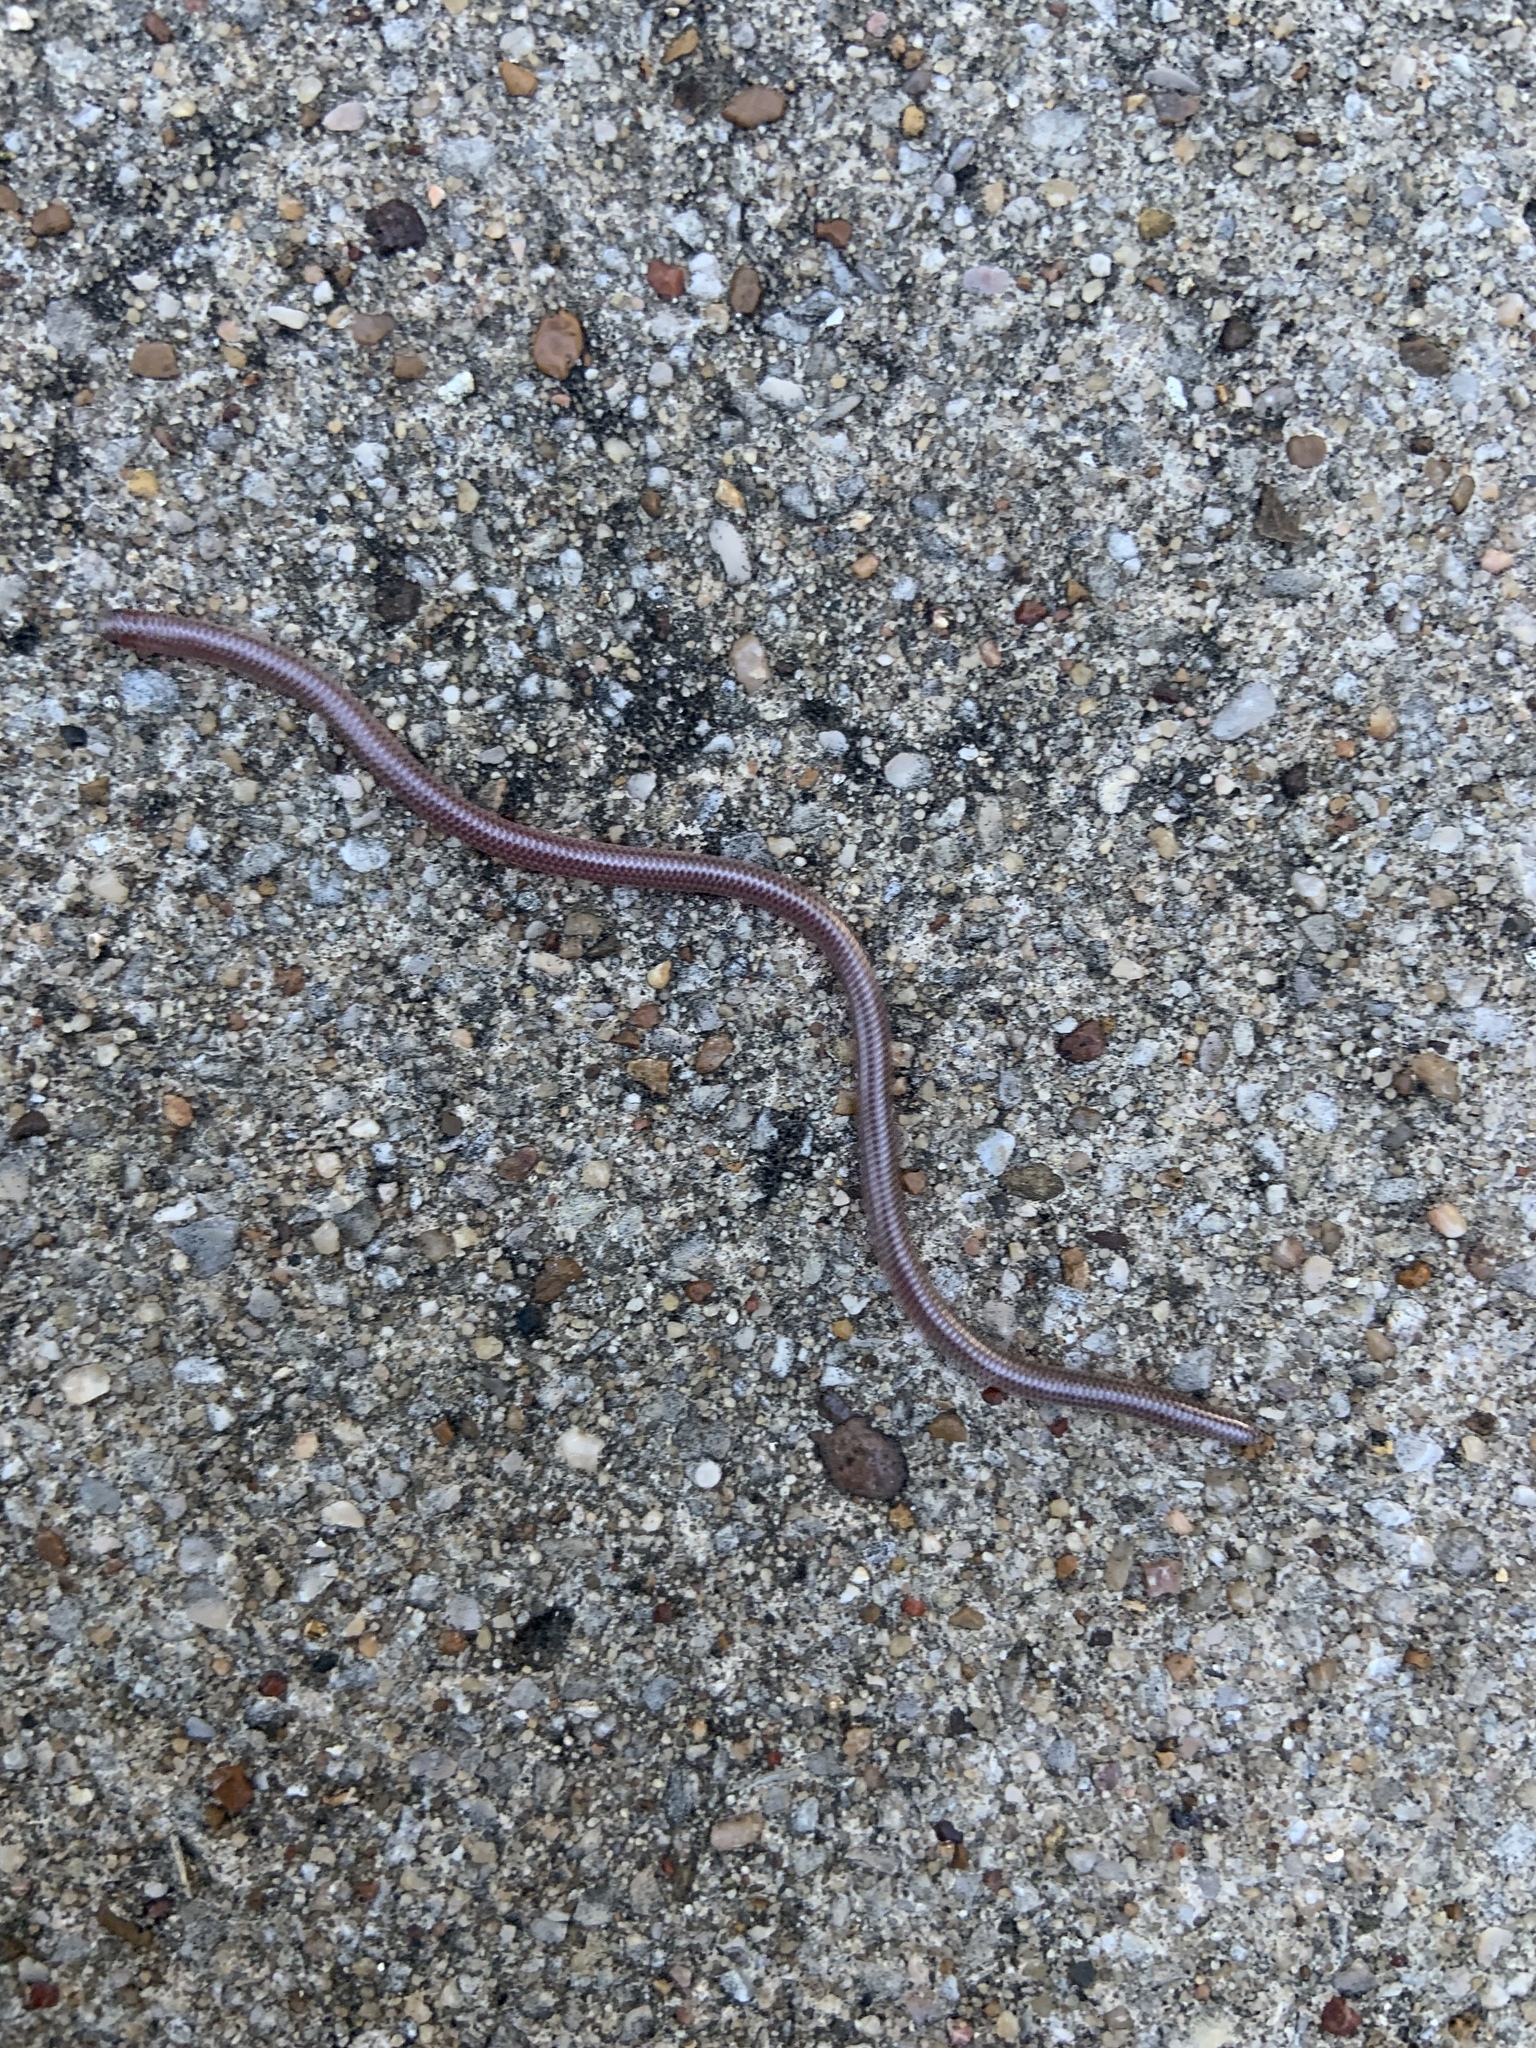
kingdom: Animalia
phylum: Chordata
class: Squamata
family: Leptotyphlopidae
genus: Rena
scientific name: Rena dulcis
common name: Texas blind snake
